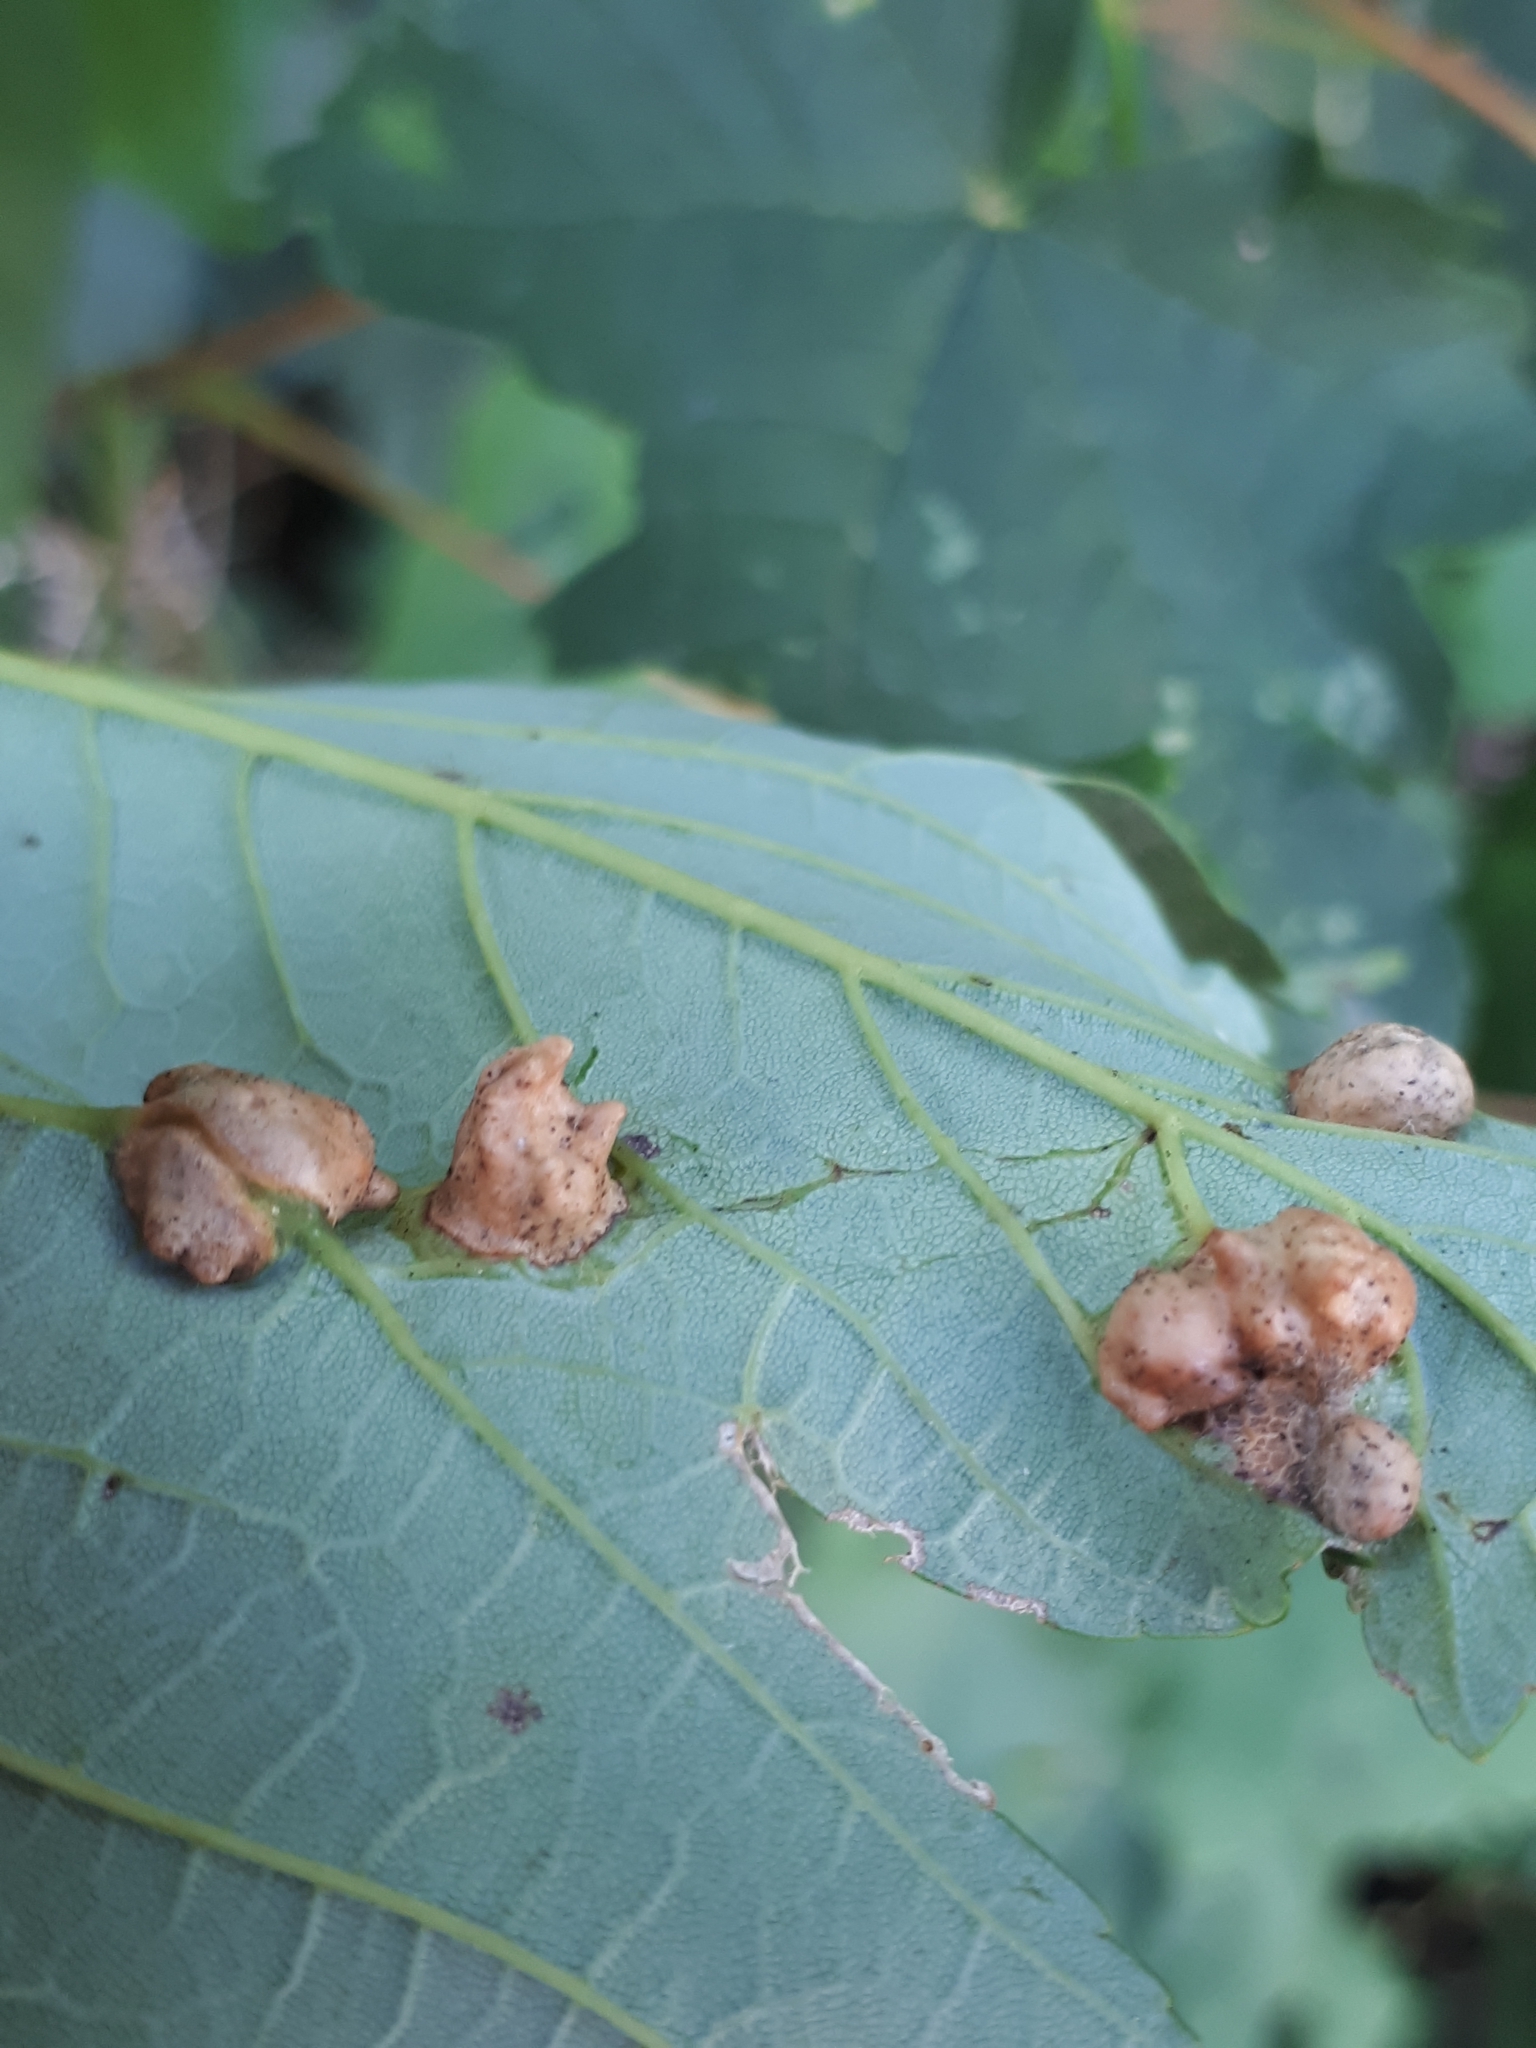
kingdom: Animalia
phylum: Arthropoda
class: Insecta
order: Hymenoptera
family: Cynipidae
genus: Pediaspis
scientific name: Pediaspis aceris
